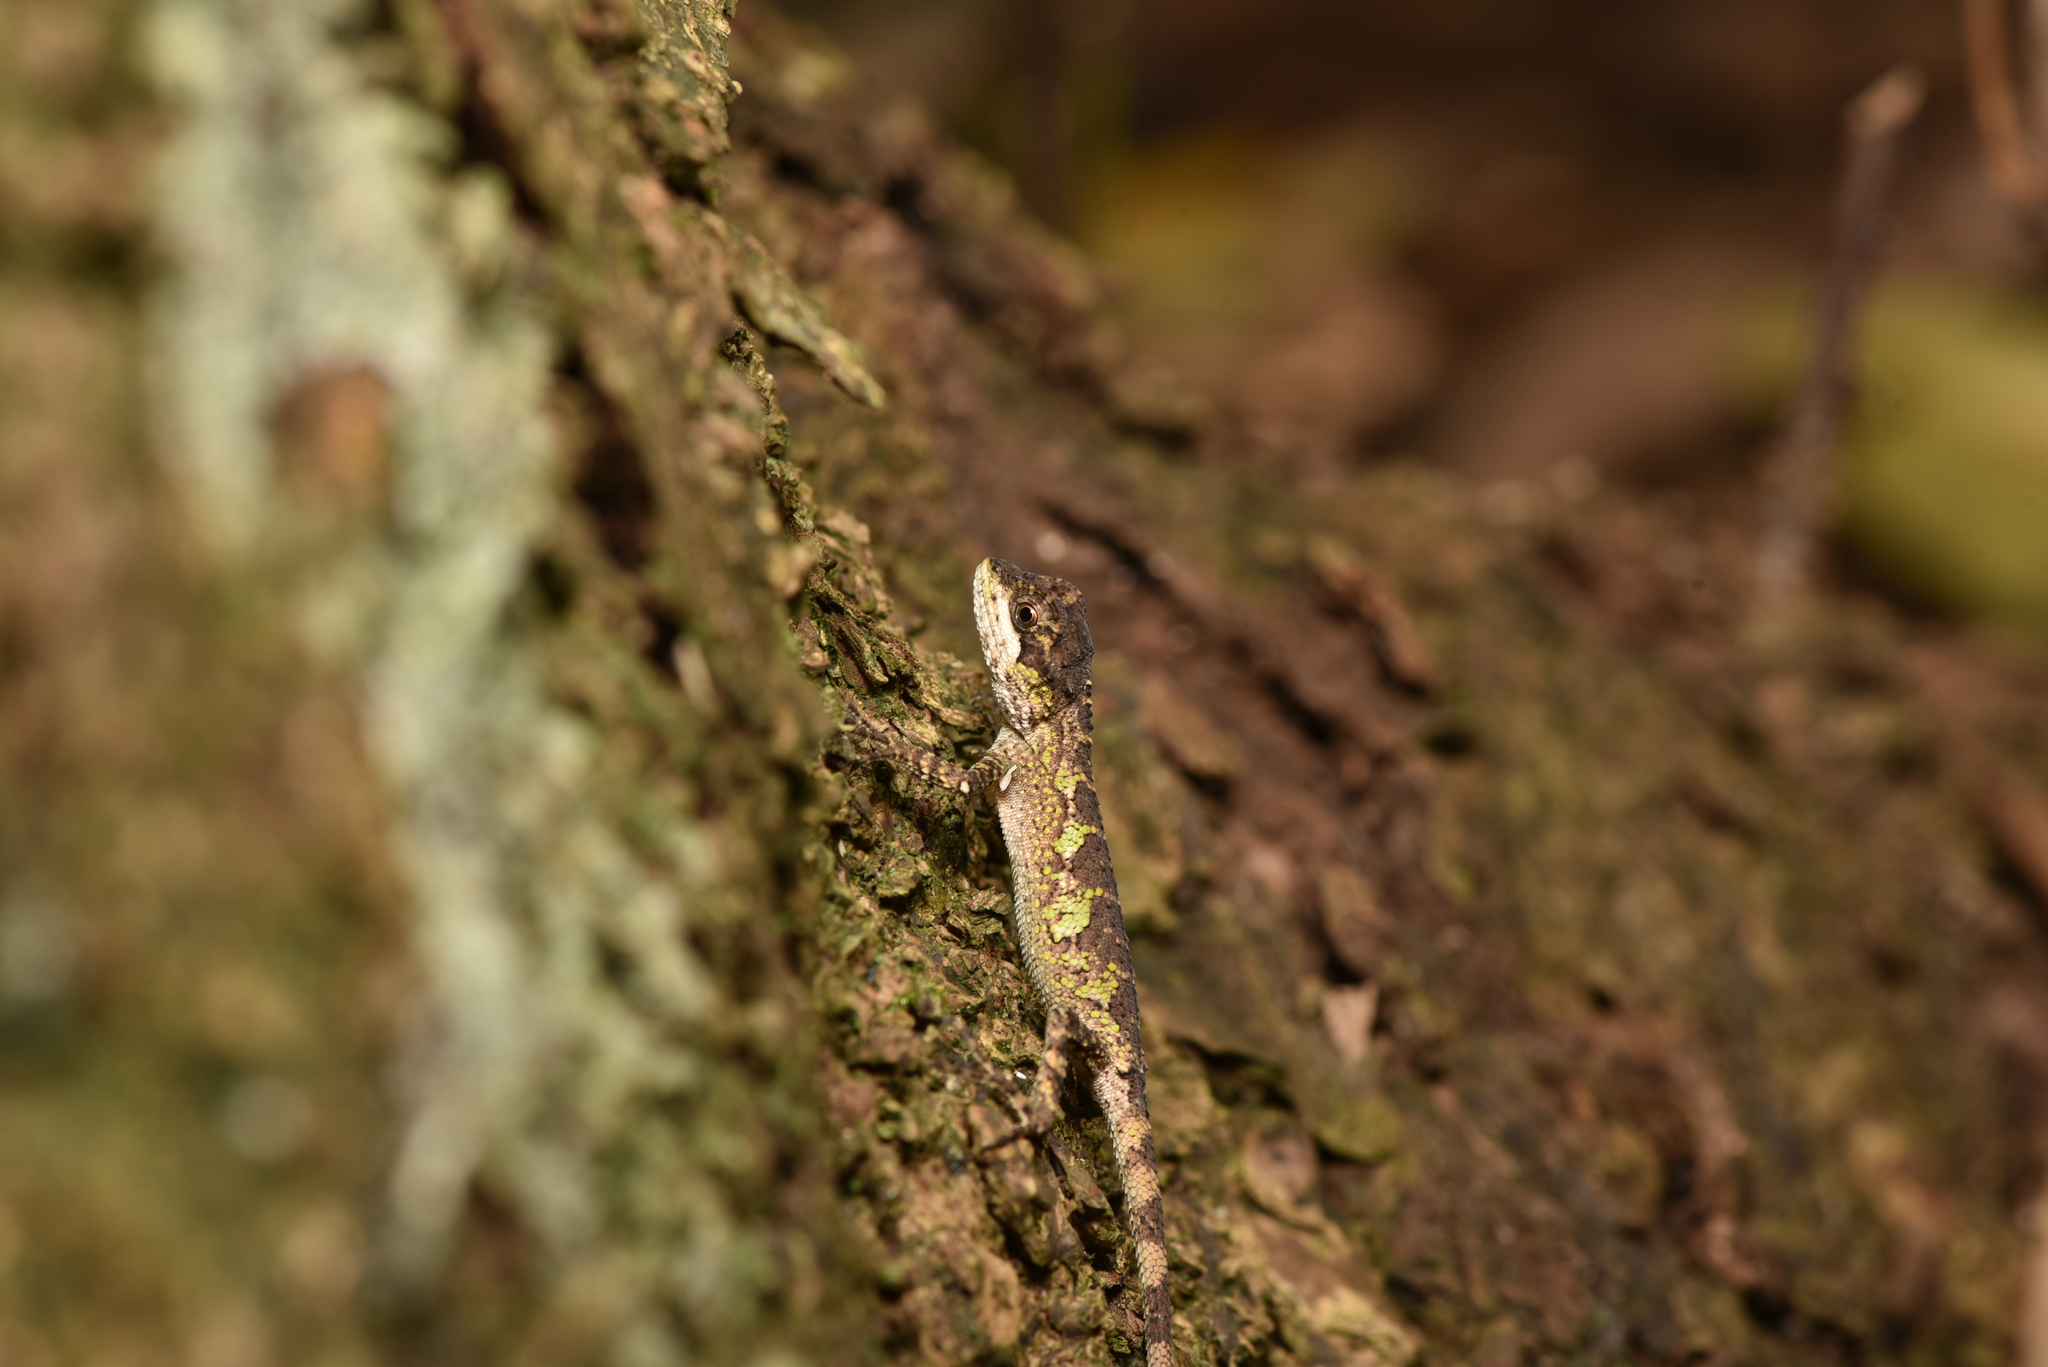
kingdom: Fungi
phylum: Basidiomycota
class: Agaricomycetes
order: Boletales
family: Diplocystidiaceae
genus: Diploderma
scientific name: Diploderma polygonatum
